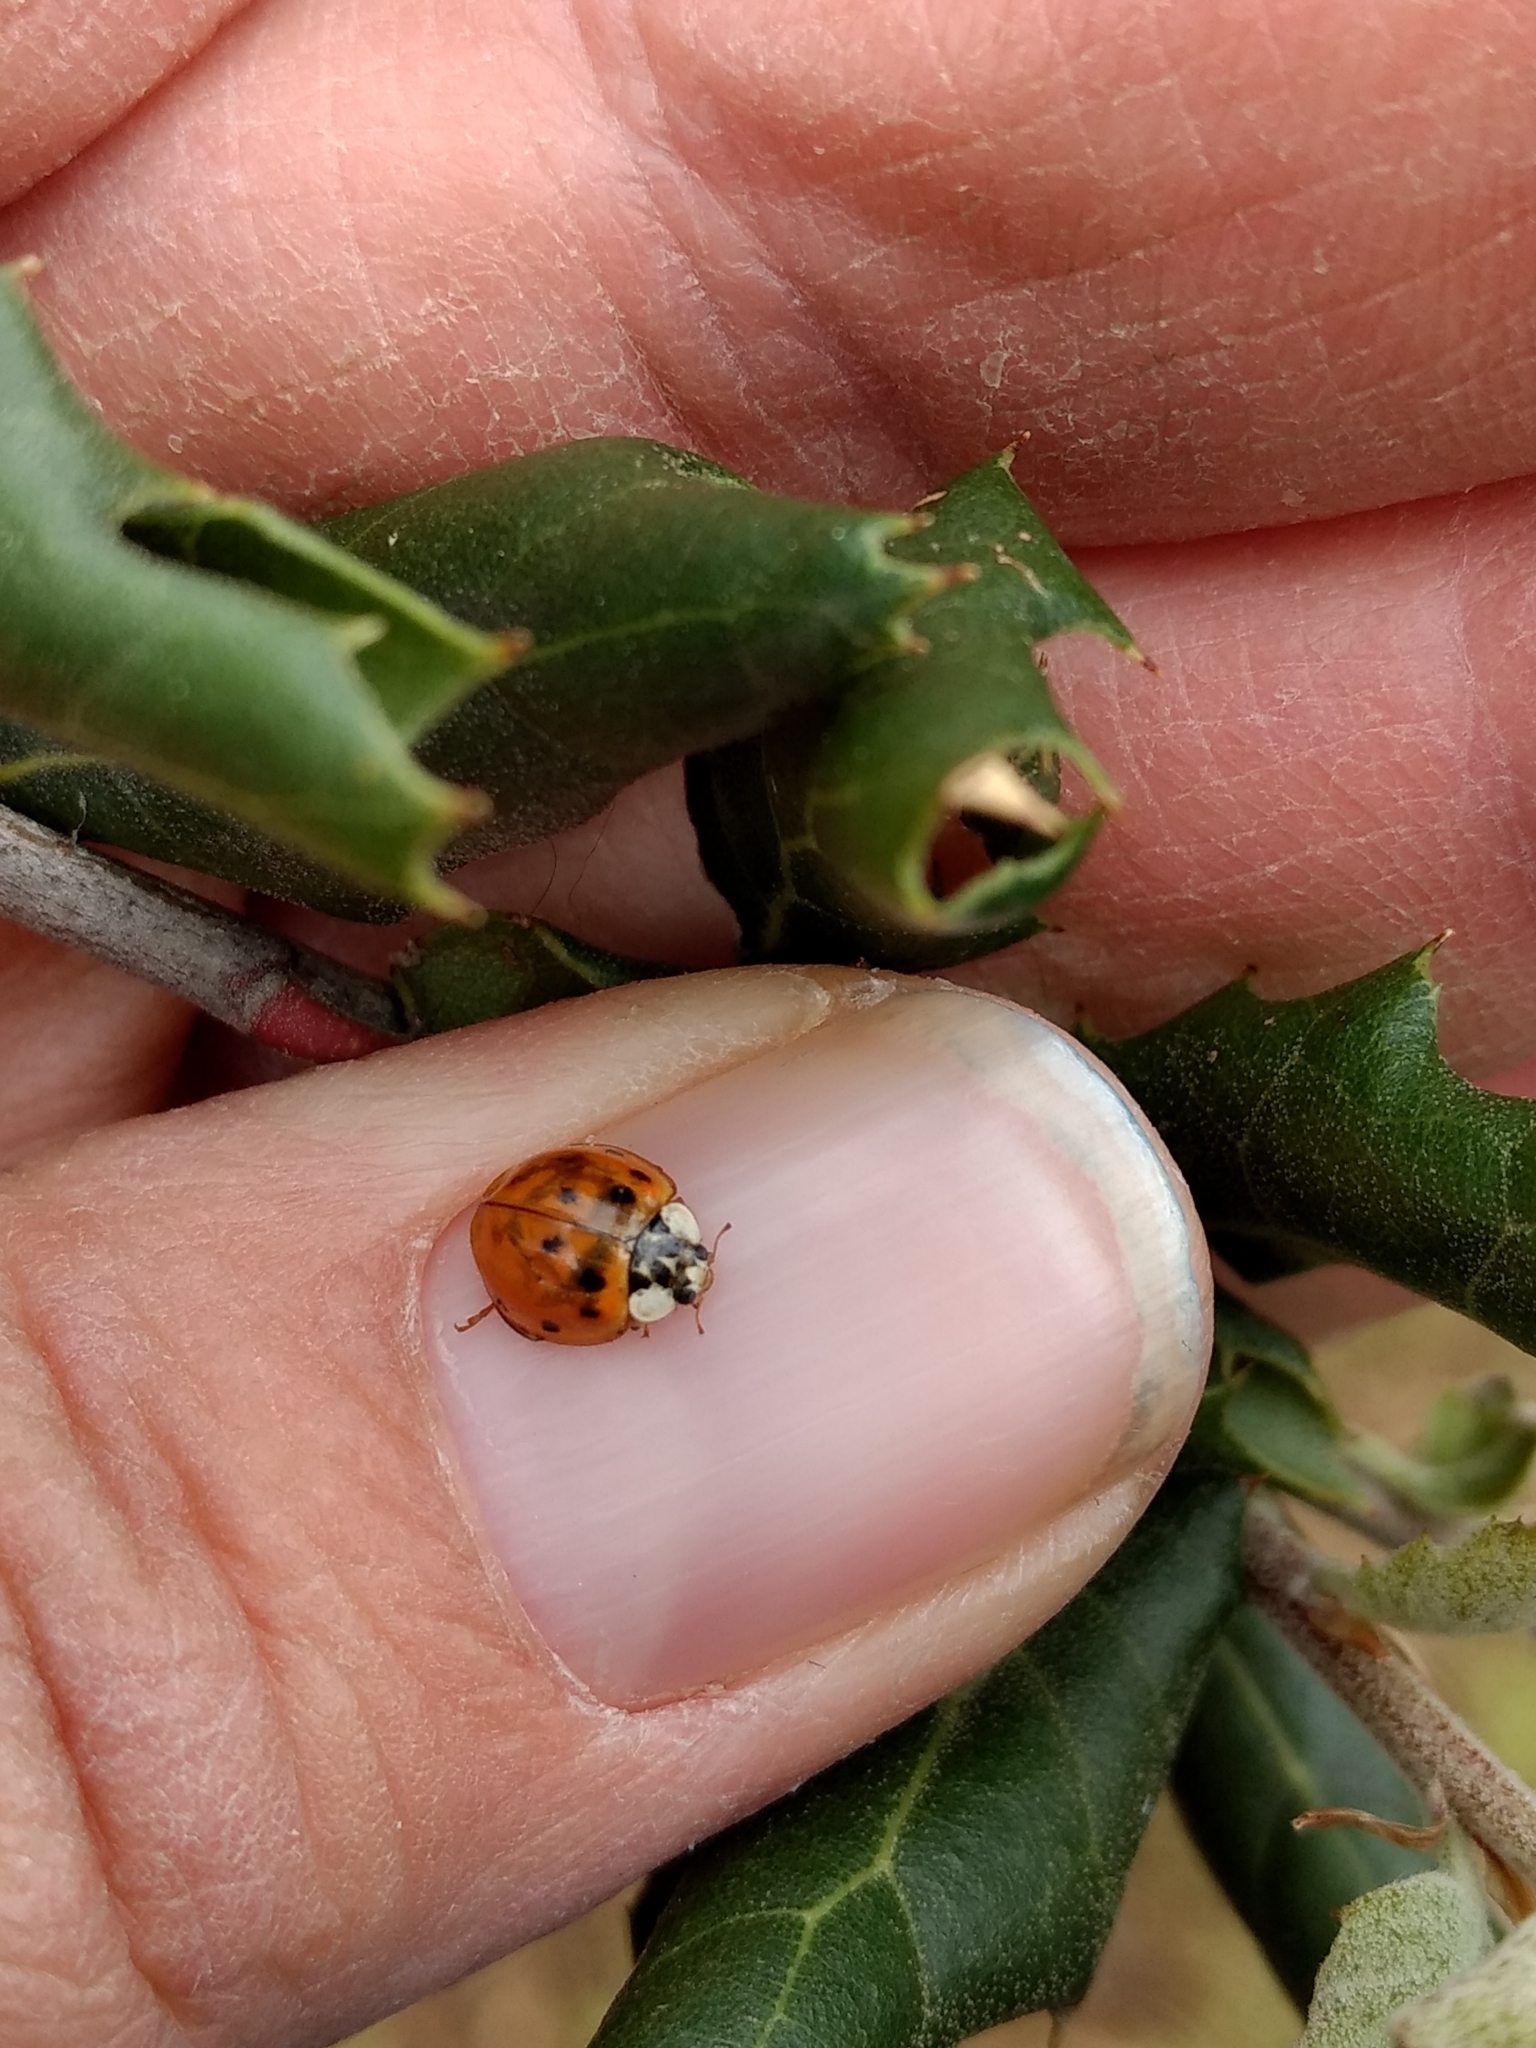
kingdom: Animalia
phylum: Arthropoda
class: Insecta
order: Coleoptera
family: Coccinellidae
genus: Harmonia
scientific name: Harmonia axyridis
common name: Harlequin ladybird
